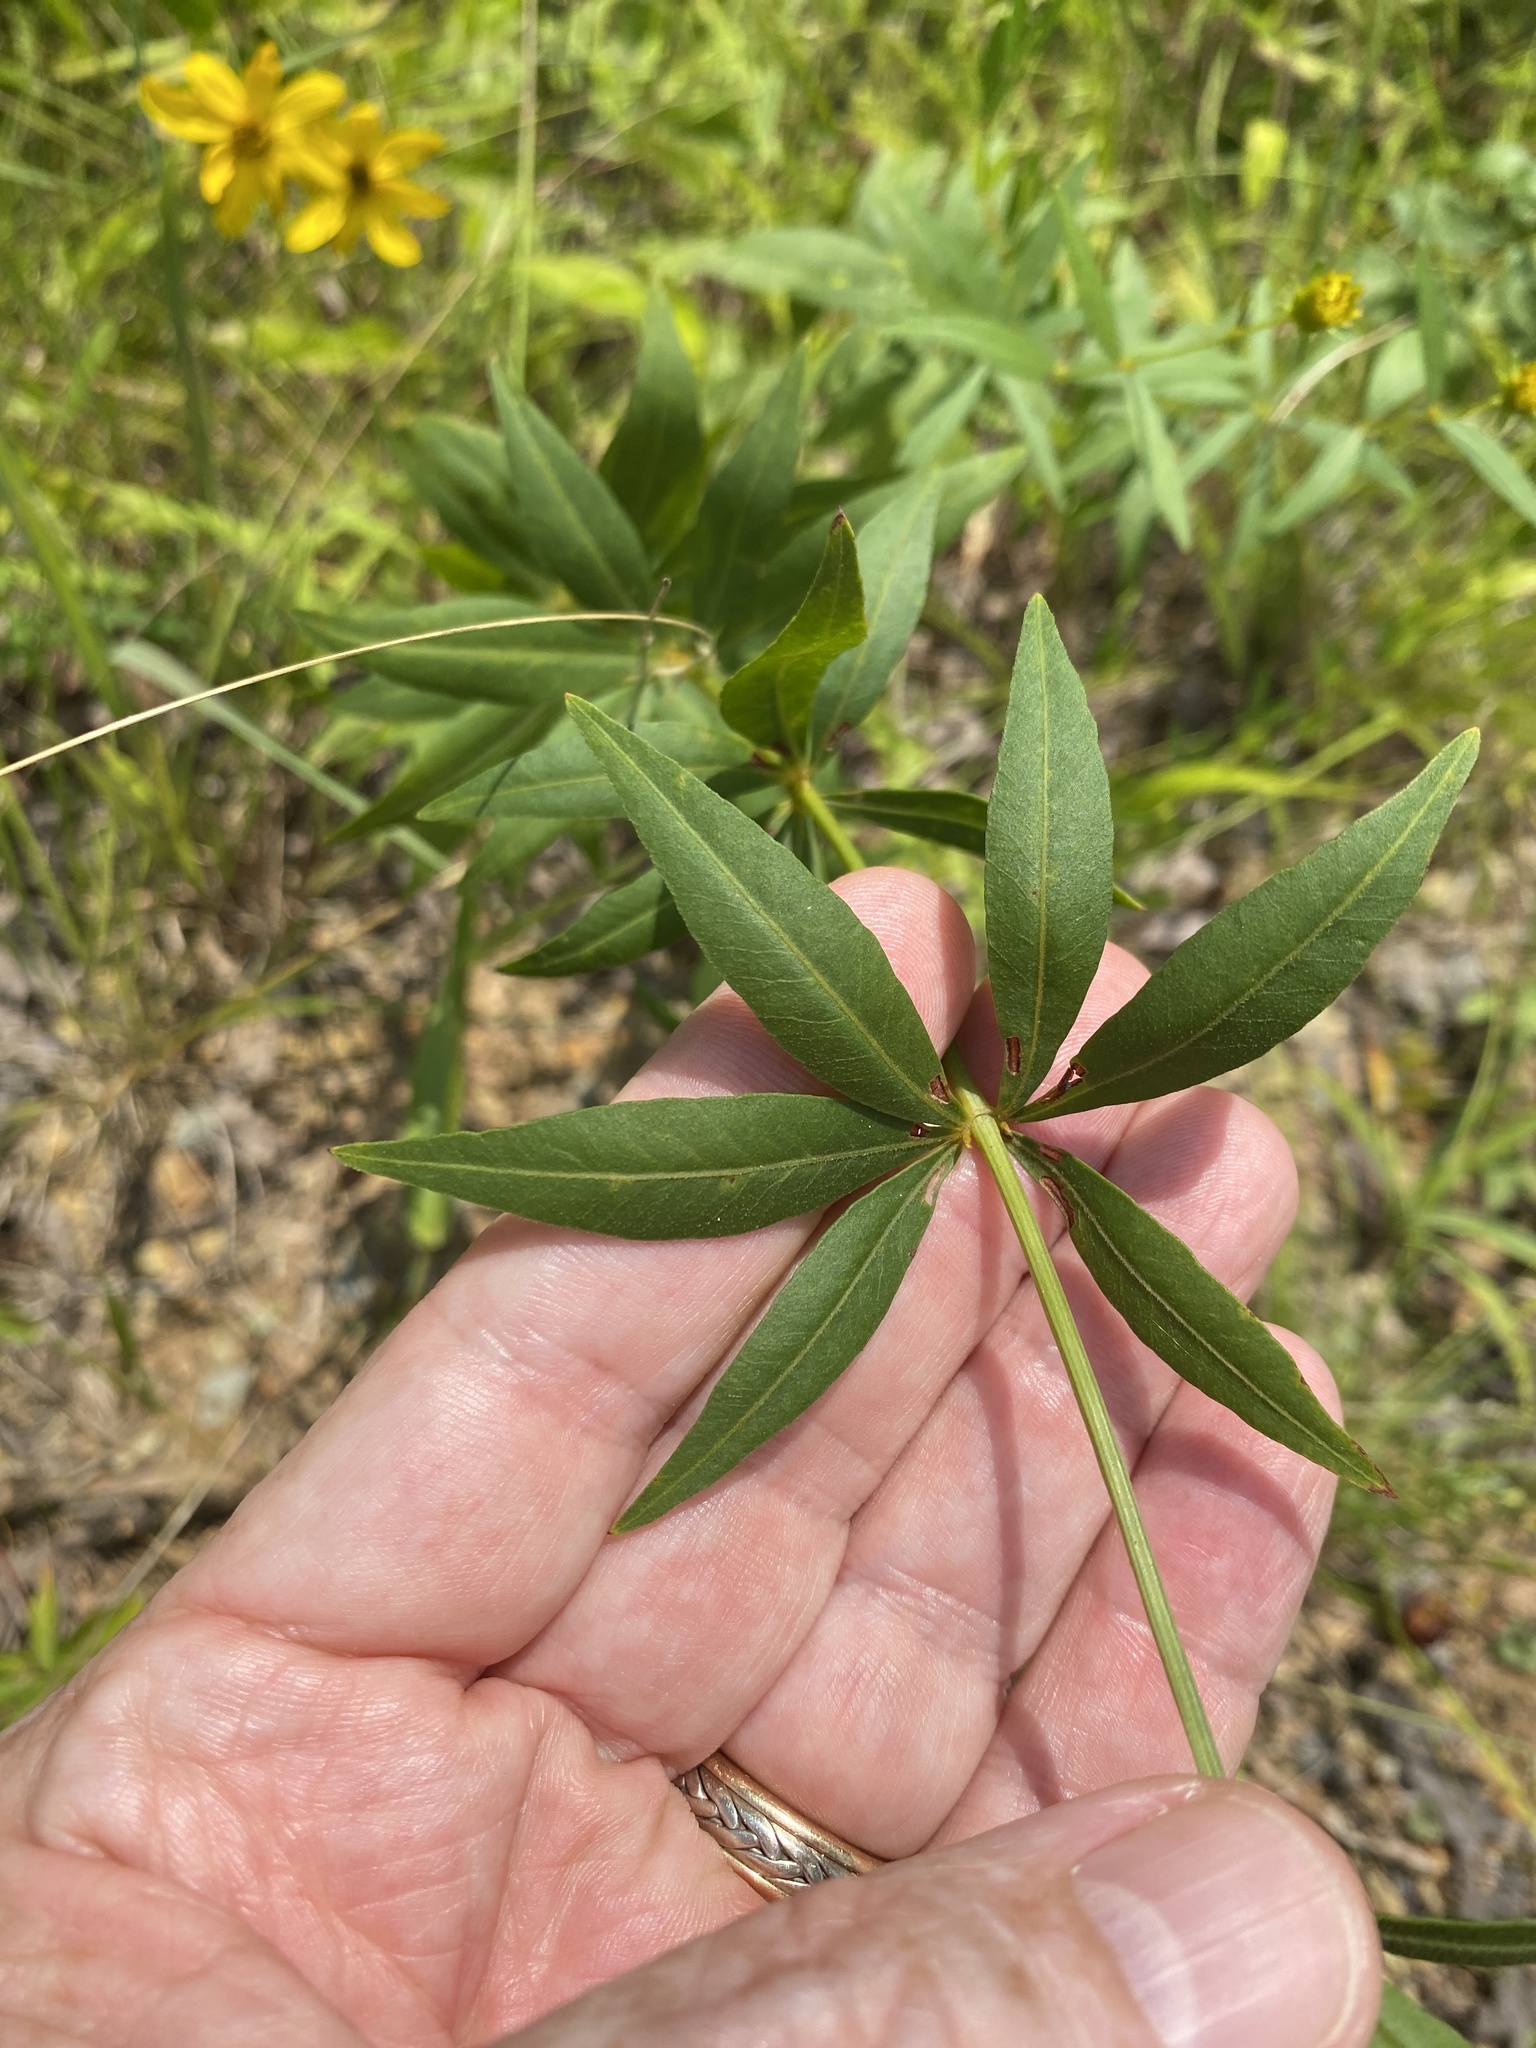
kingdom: Plantae
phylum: Tracheophyta
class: Magnoliopsida
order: Asterales
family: Asteraceae
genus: Coreopsis
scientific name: Coreopsis major
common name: Forest tickseed
